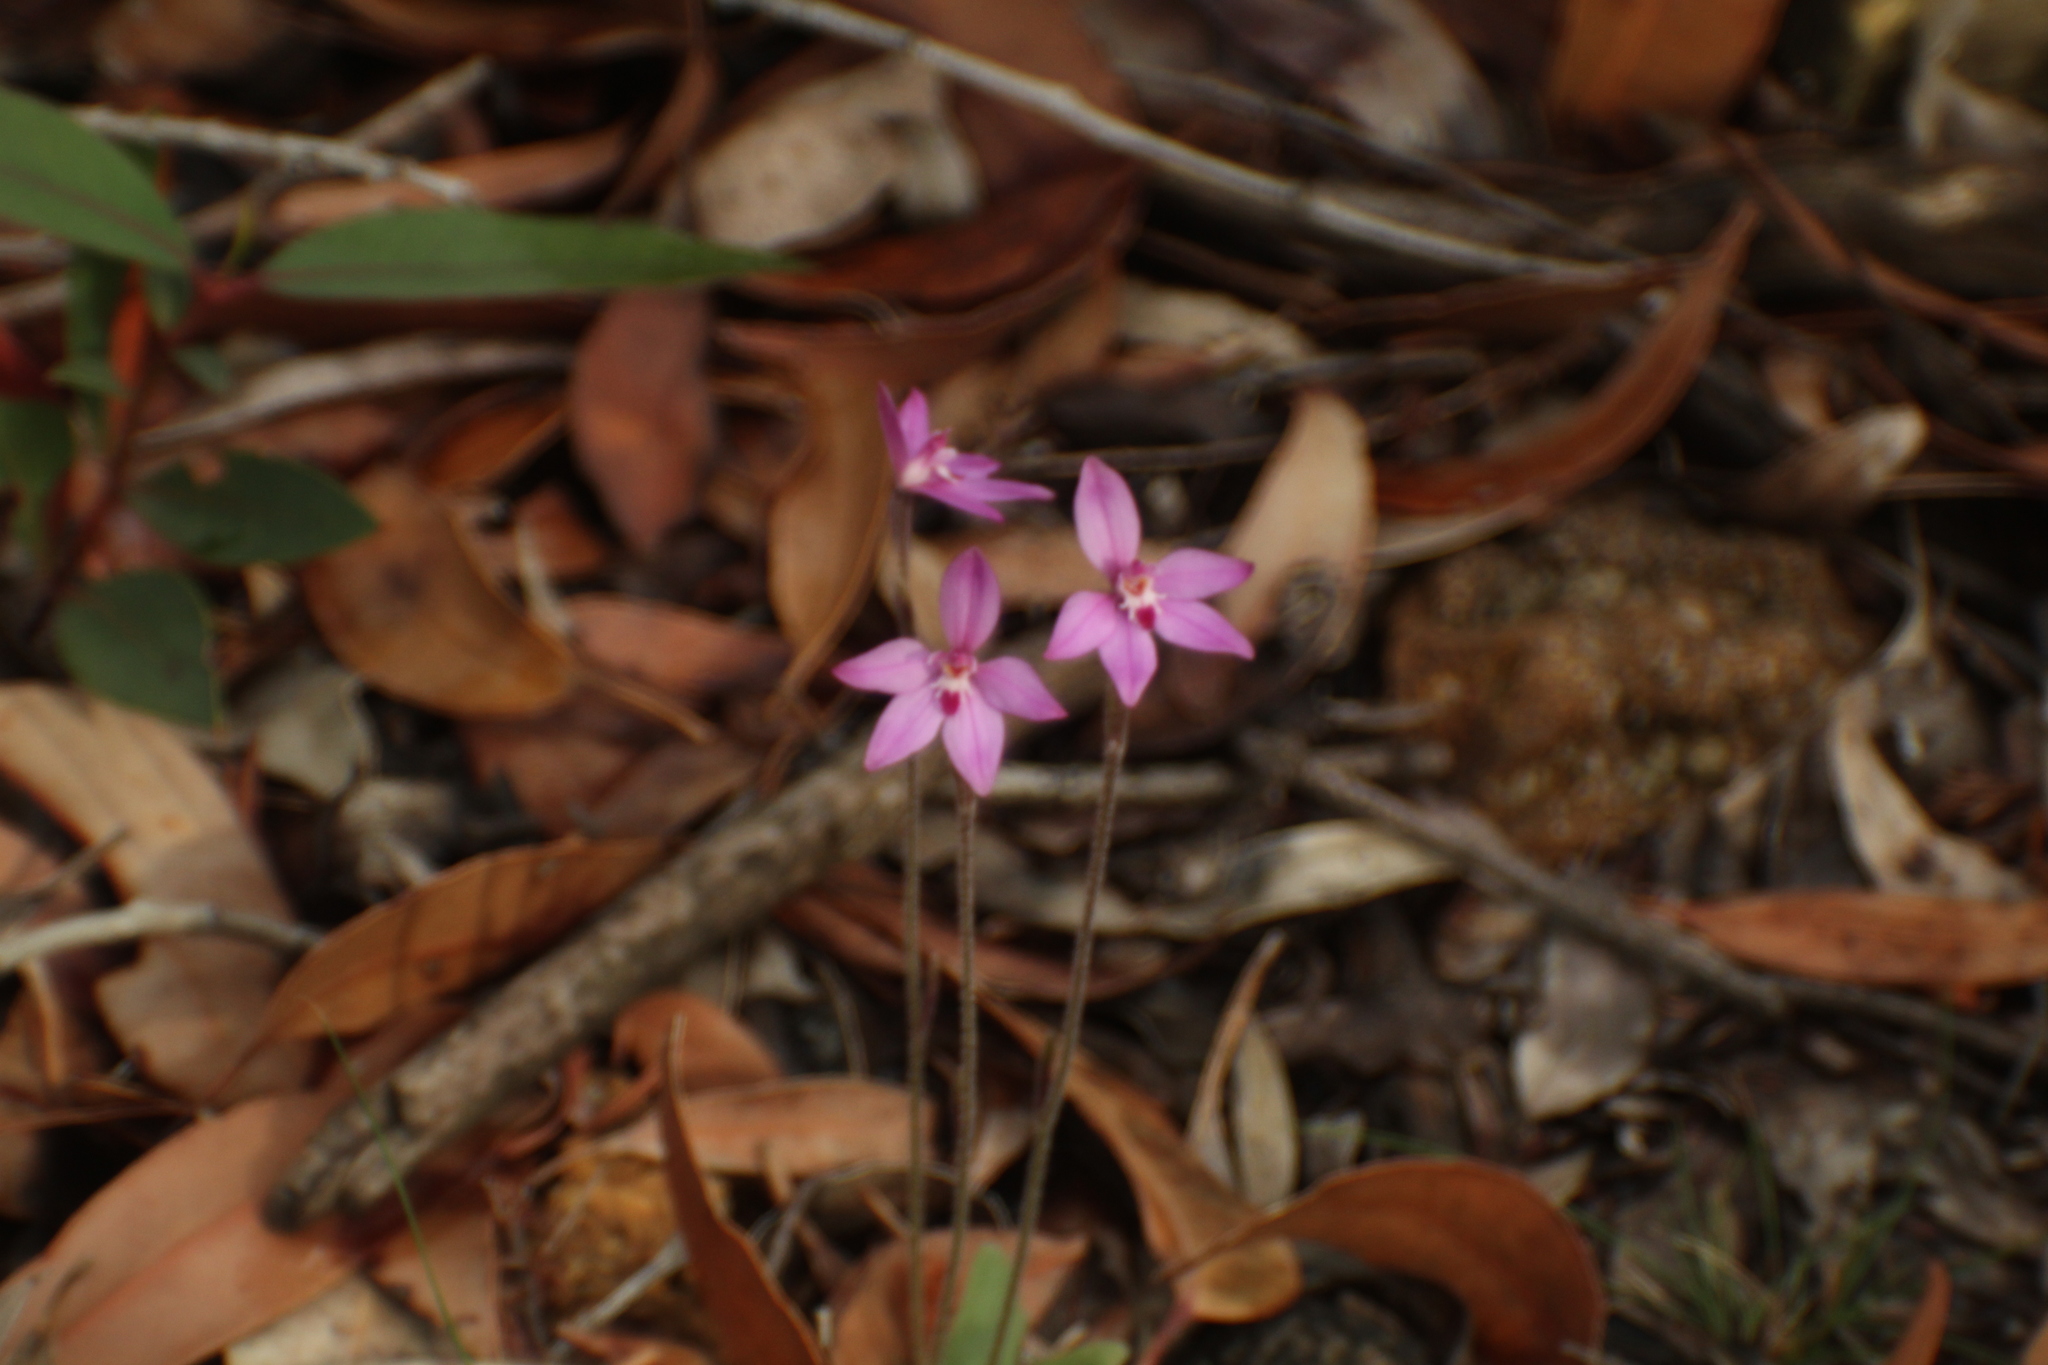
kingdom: Plantae
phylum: Tracheophyta
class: Liliopsida
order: Asparagales
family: Orchidaceae
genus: Caladenia
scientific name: Caladenia reptans
